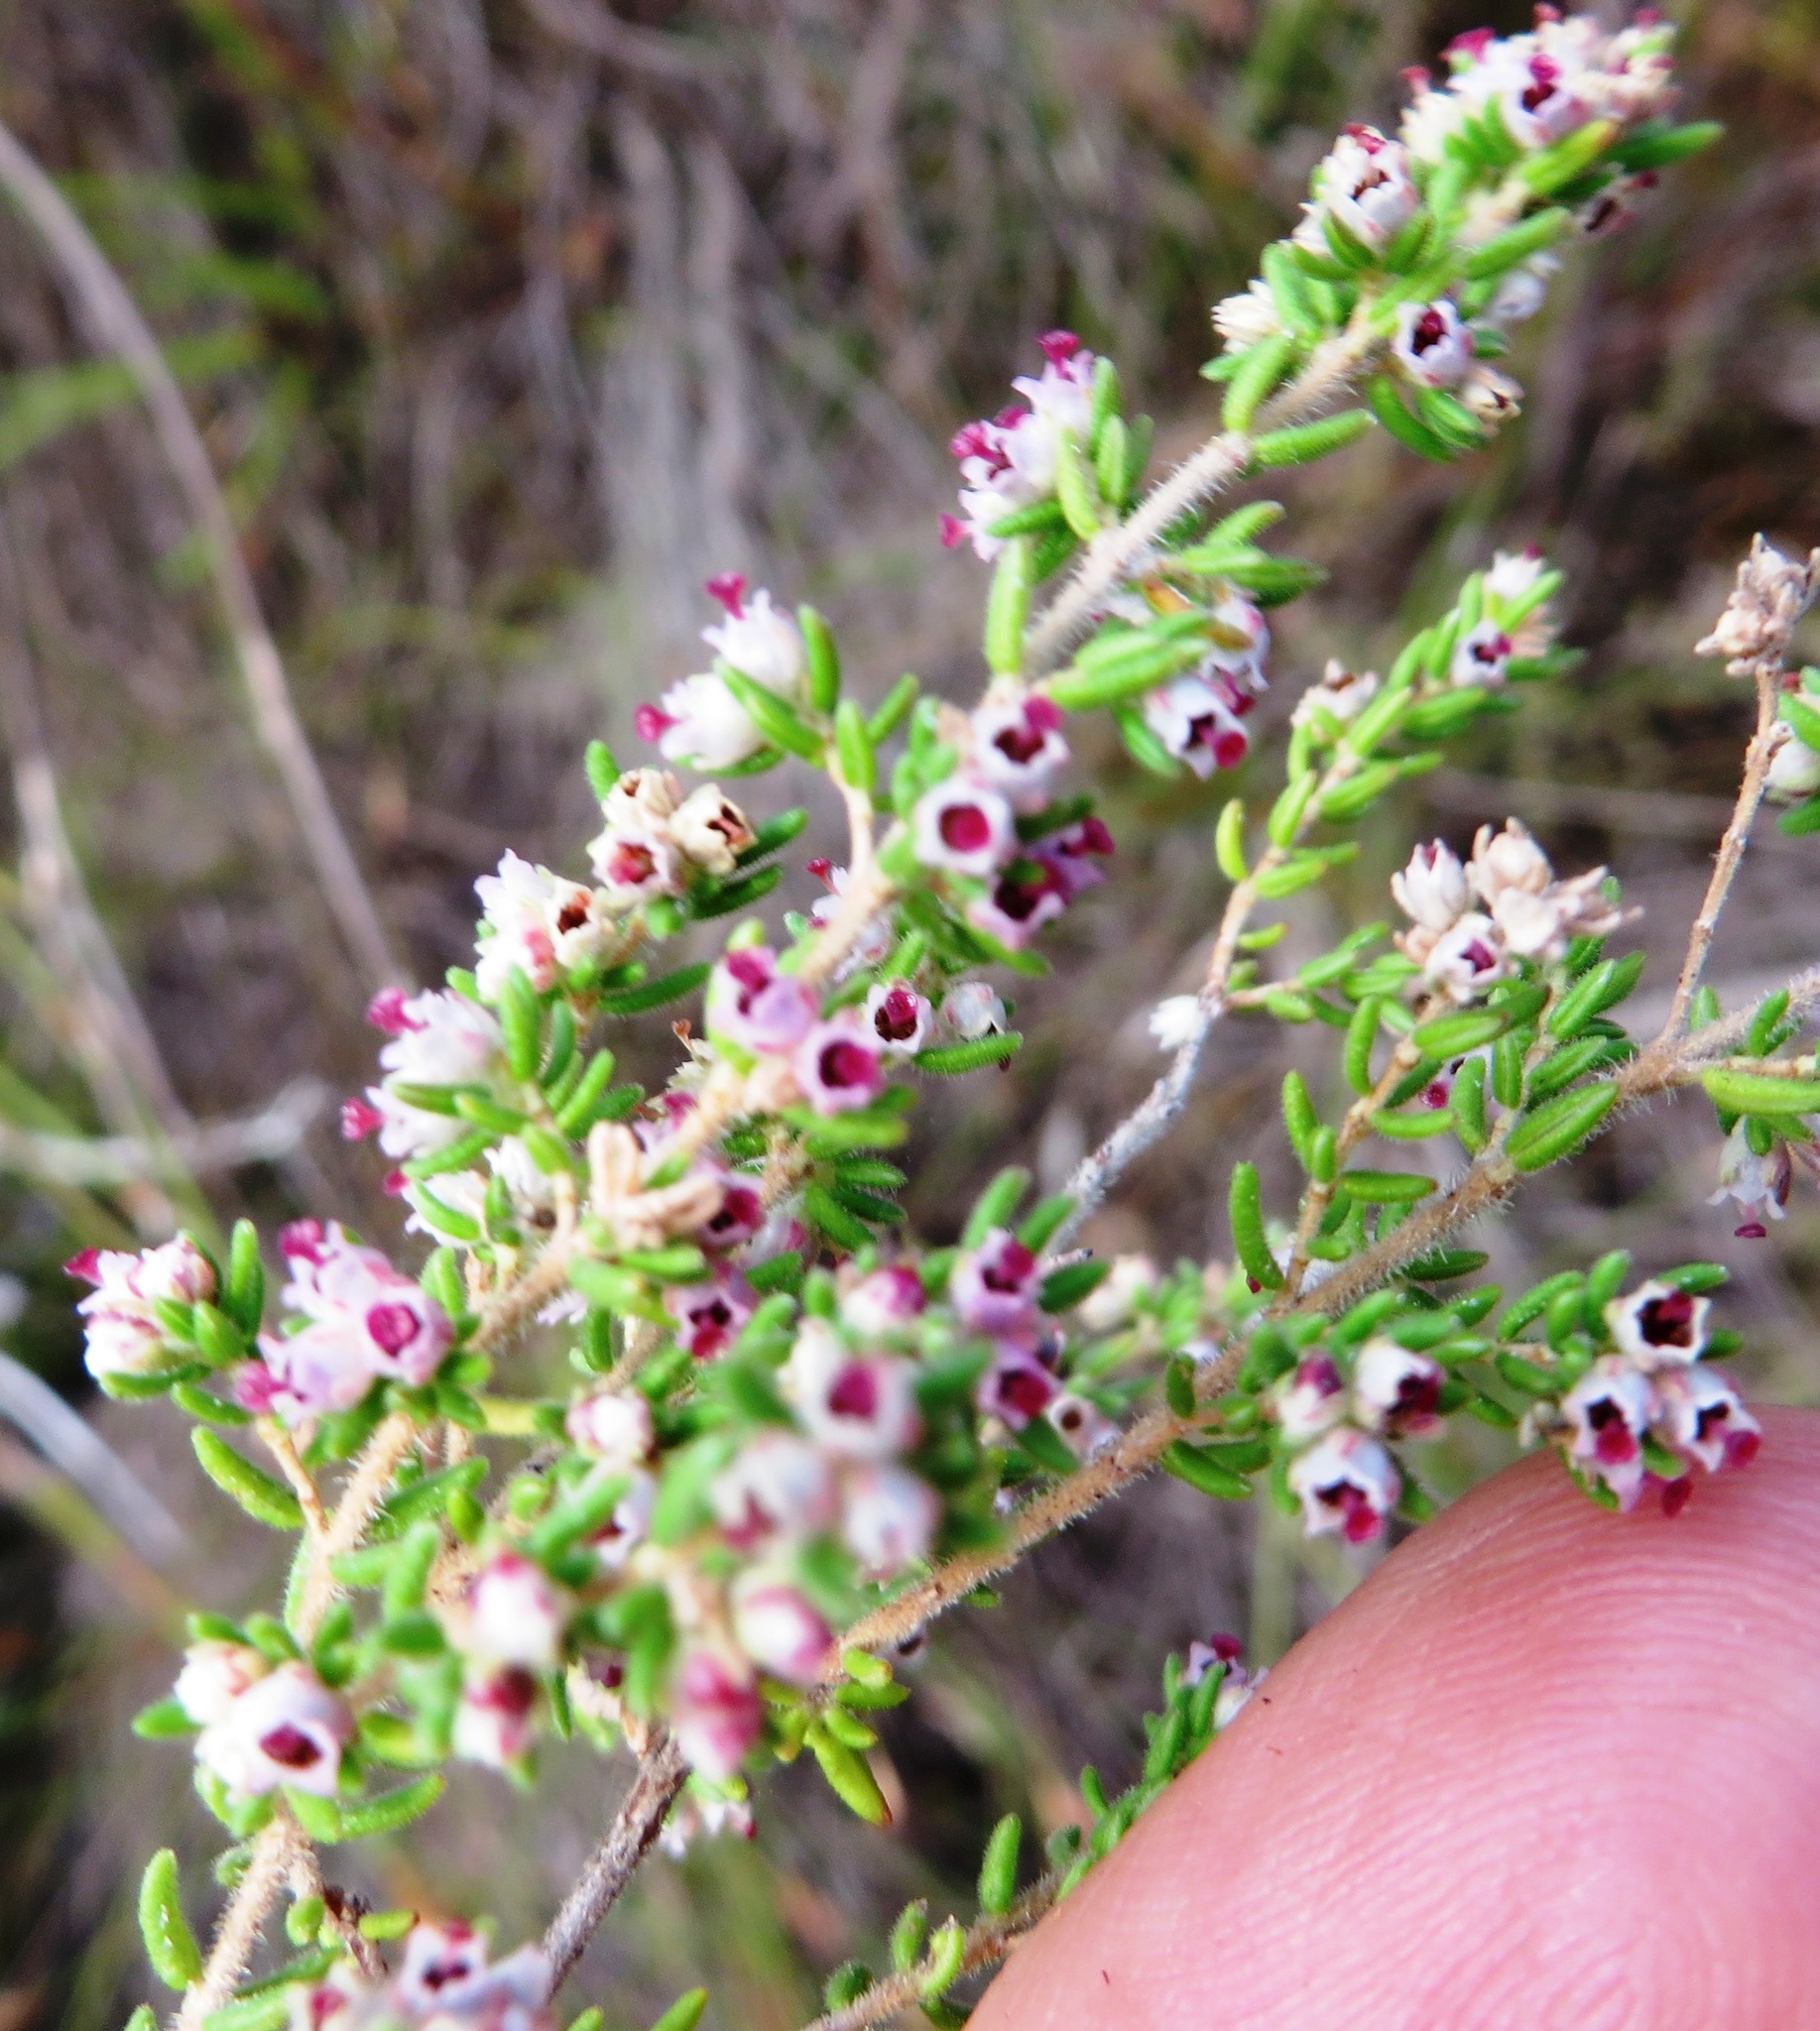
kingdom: Plantae
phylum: Tracheophyta
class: Magnoliopsida
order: Ericales
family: Ericaceae
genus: Erica
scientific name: Erica hispidula
